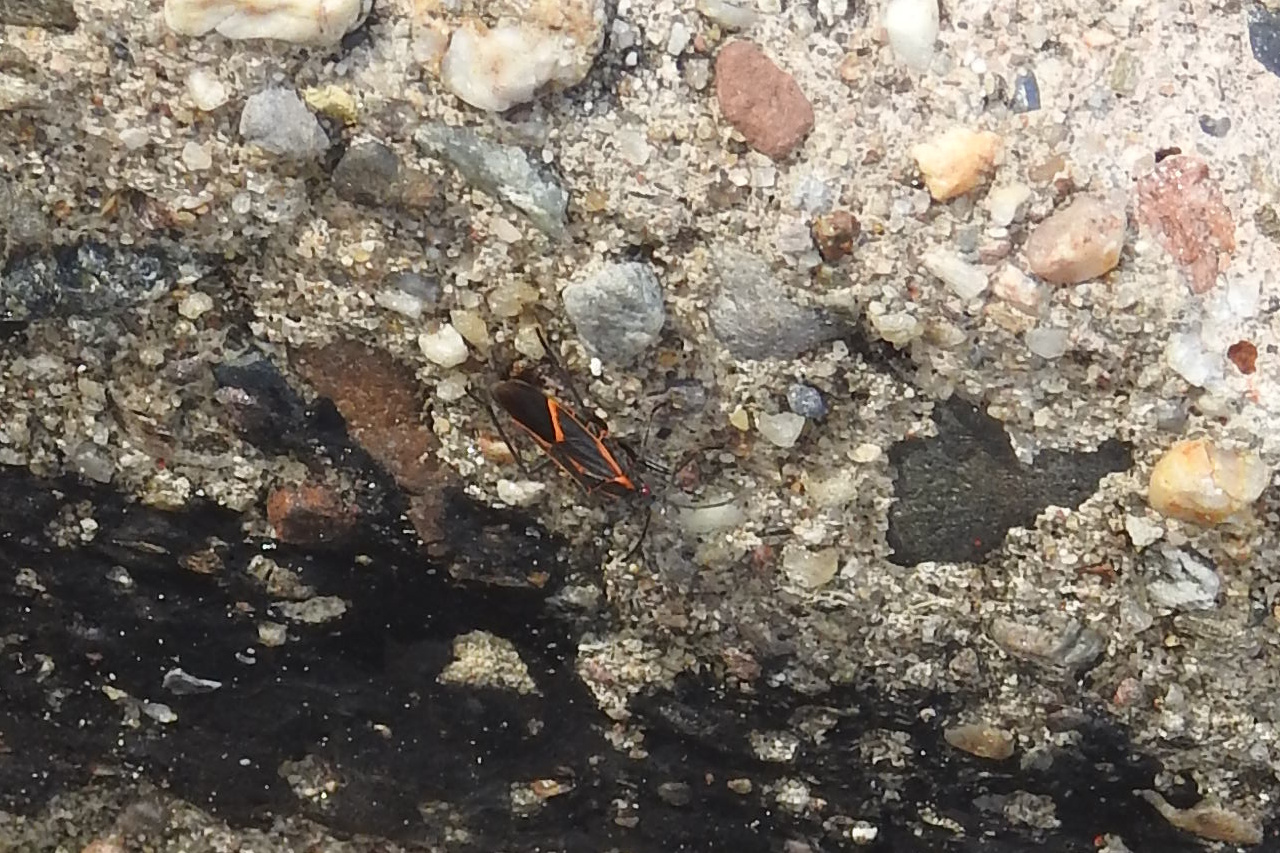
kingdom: Animalia
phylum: Arthropoda
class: Insecta
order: Hemiptera
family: Rhopalidae
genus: Boisea
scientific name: Boisea trivittata
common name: Boxelder bug
